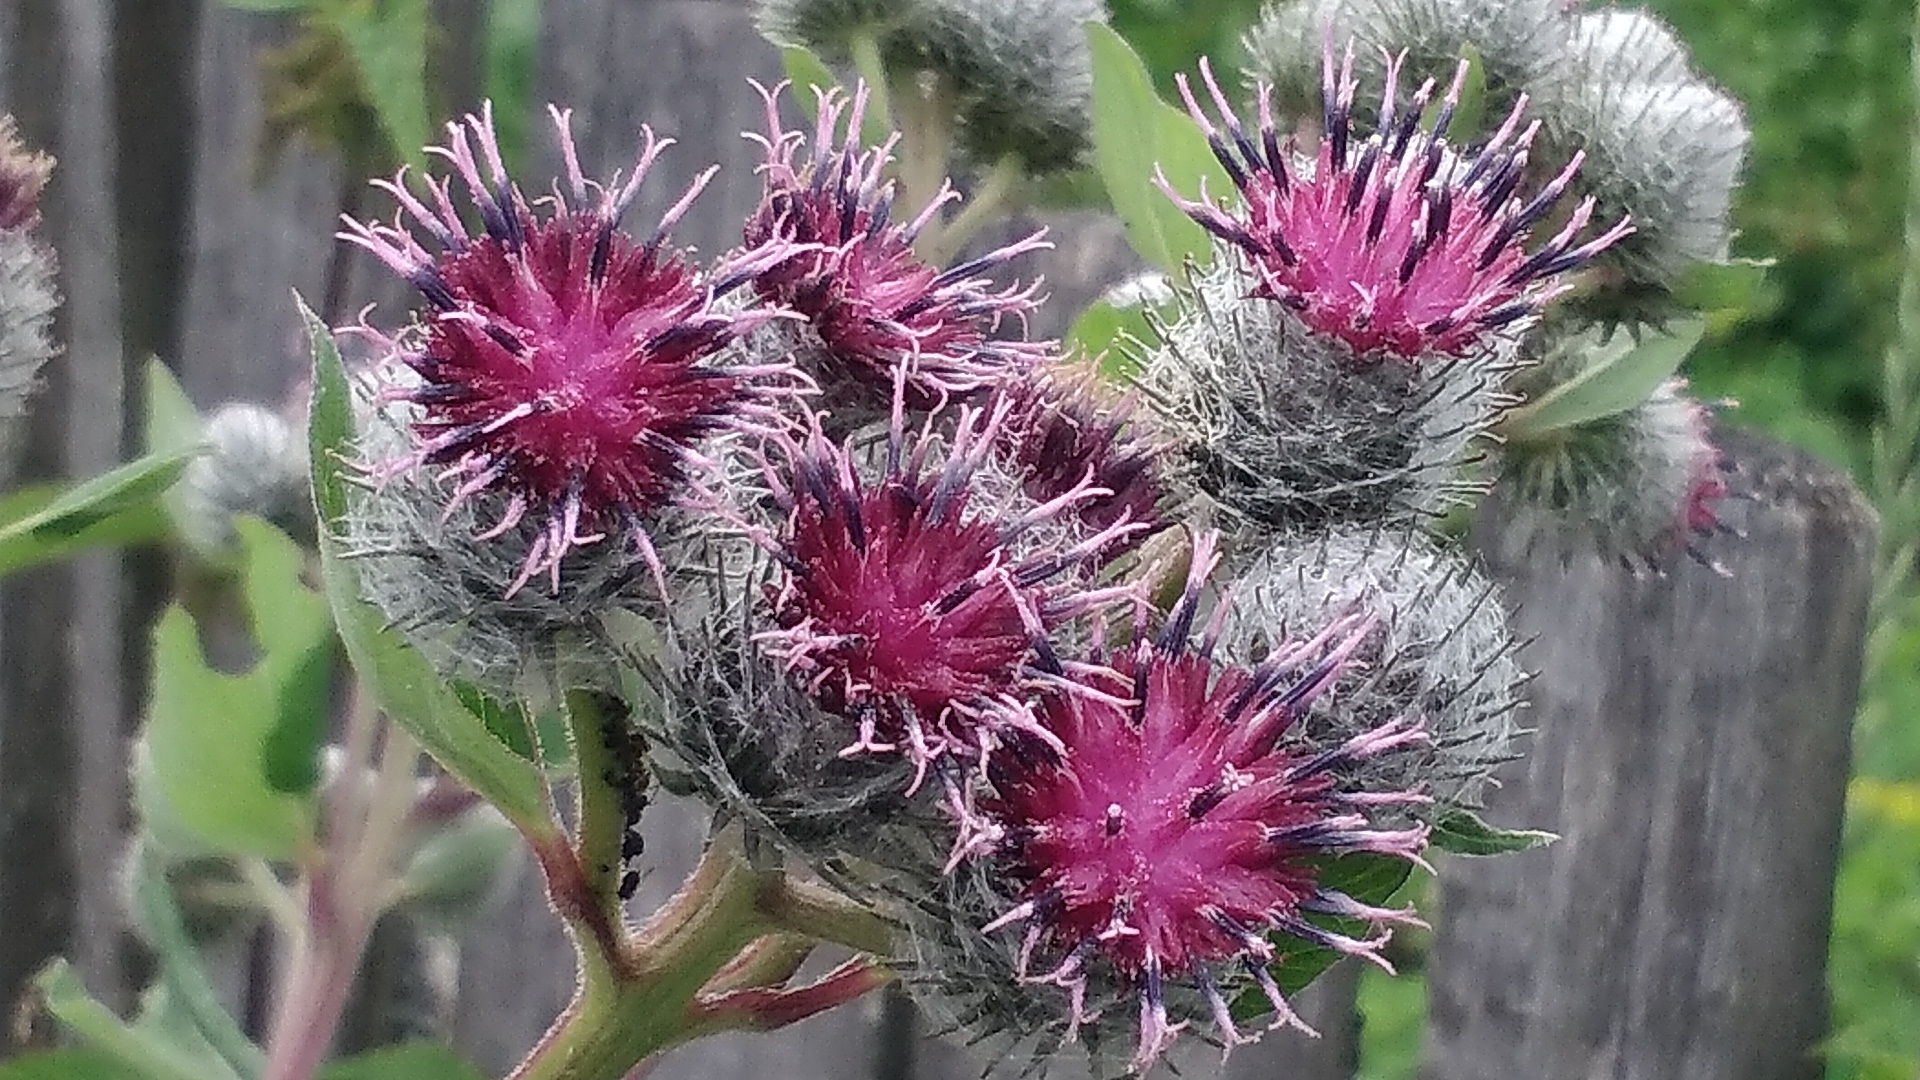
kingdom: Plantae
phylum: Tracheophyta
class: Magnoliopsida
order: Asterales
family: Asteraceae
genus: Arctium
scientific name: Arctium tomentosum
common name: Woolly burdock
